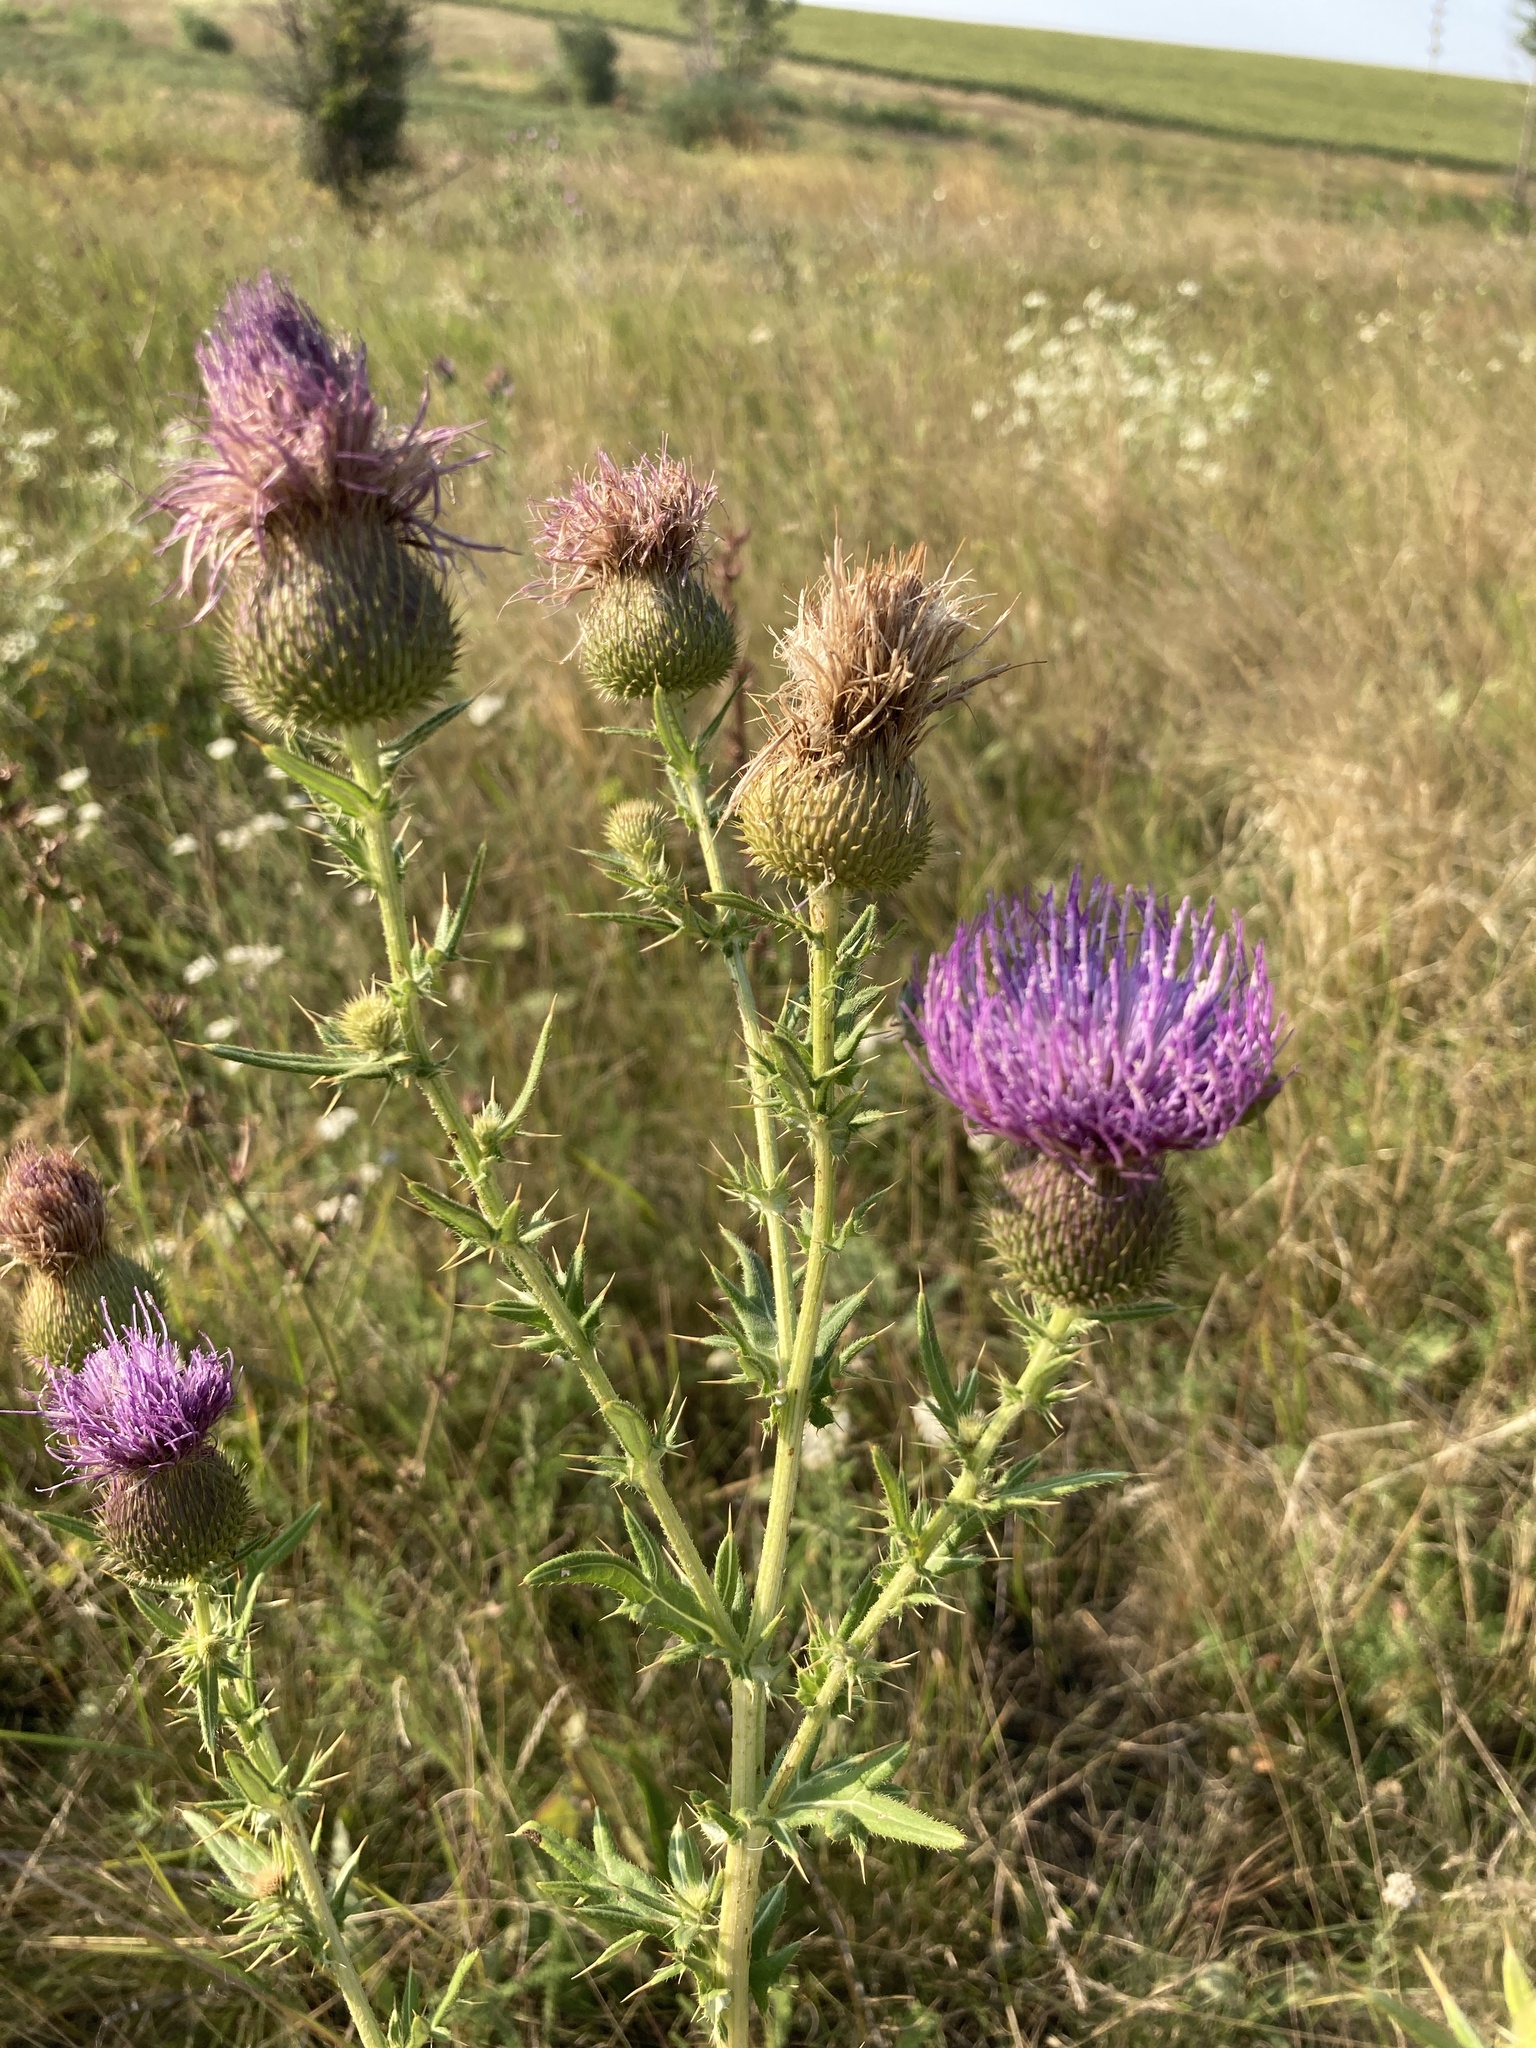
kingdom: Plantae
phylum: Tracheophyta
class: Magnoliopsida
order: Asterales
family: Asteraceae
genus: Cirsium
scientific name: Cirsium serrulatum
